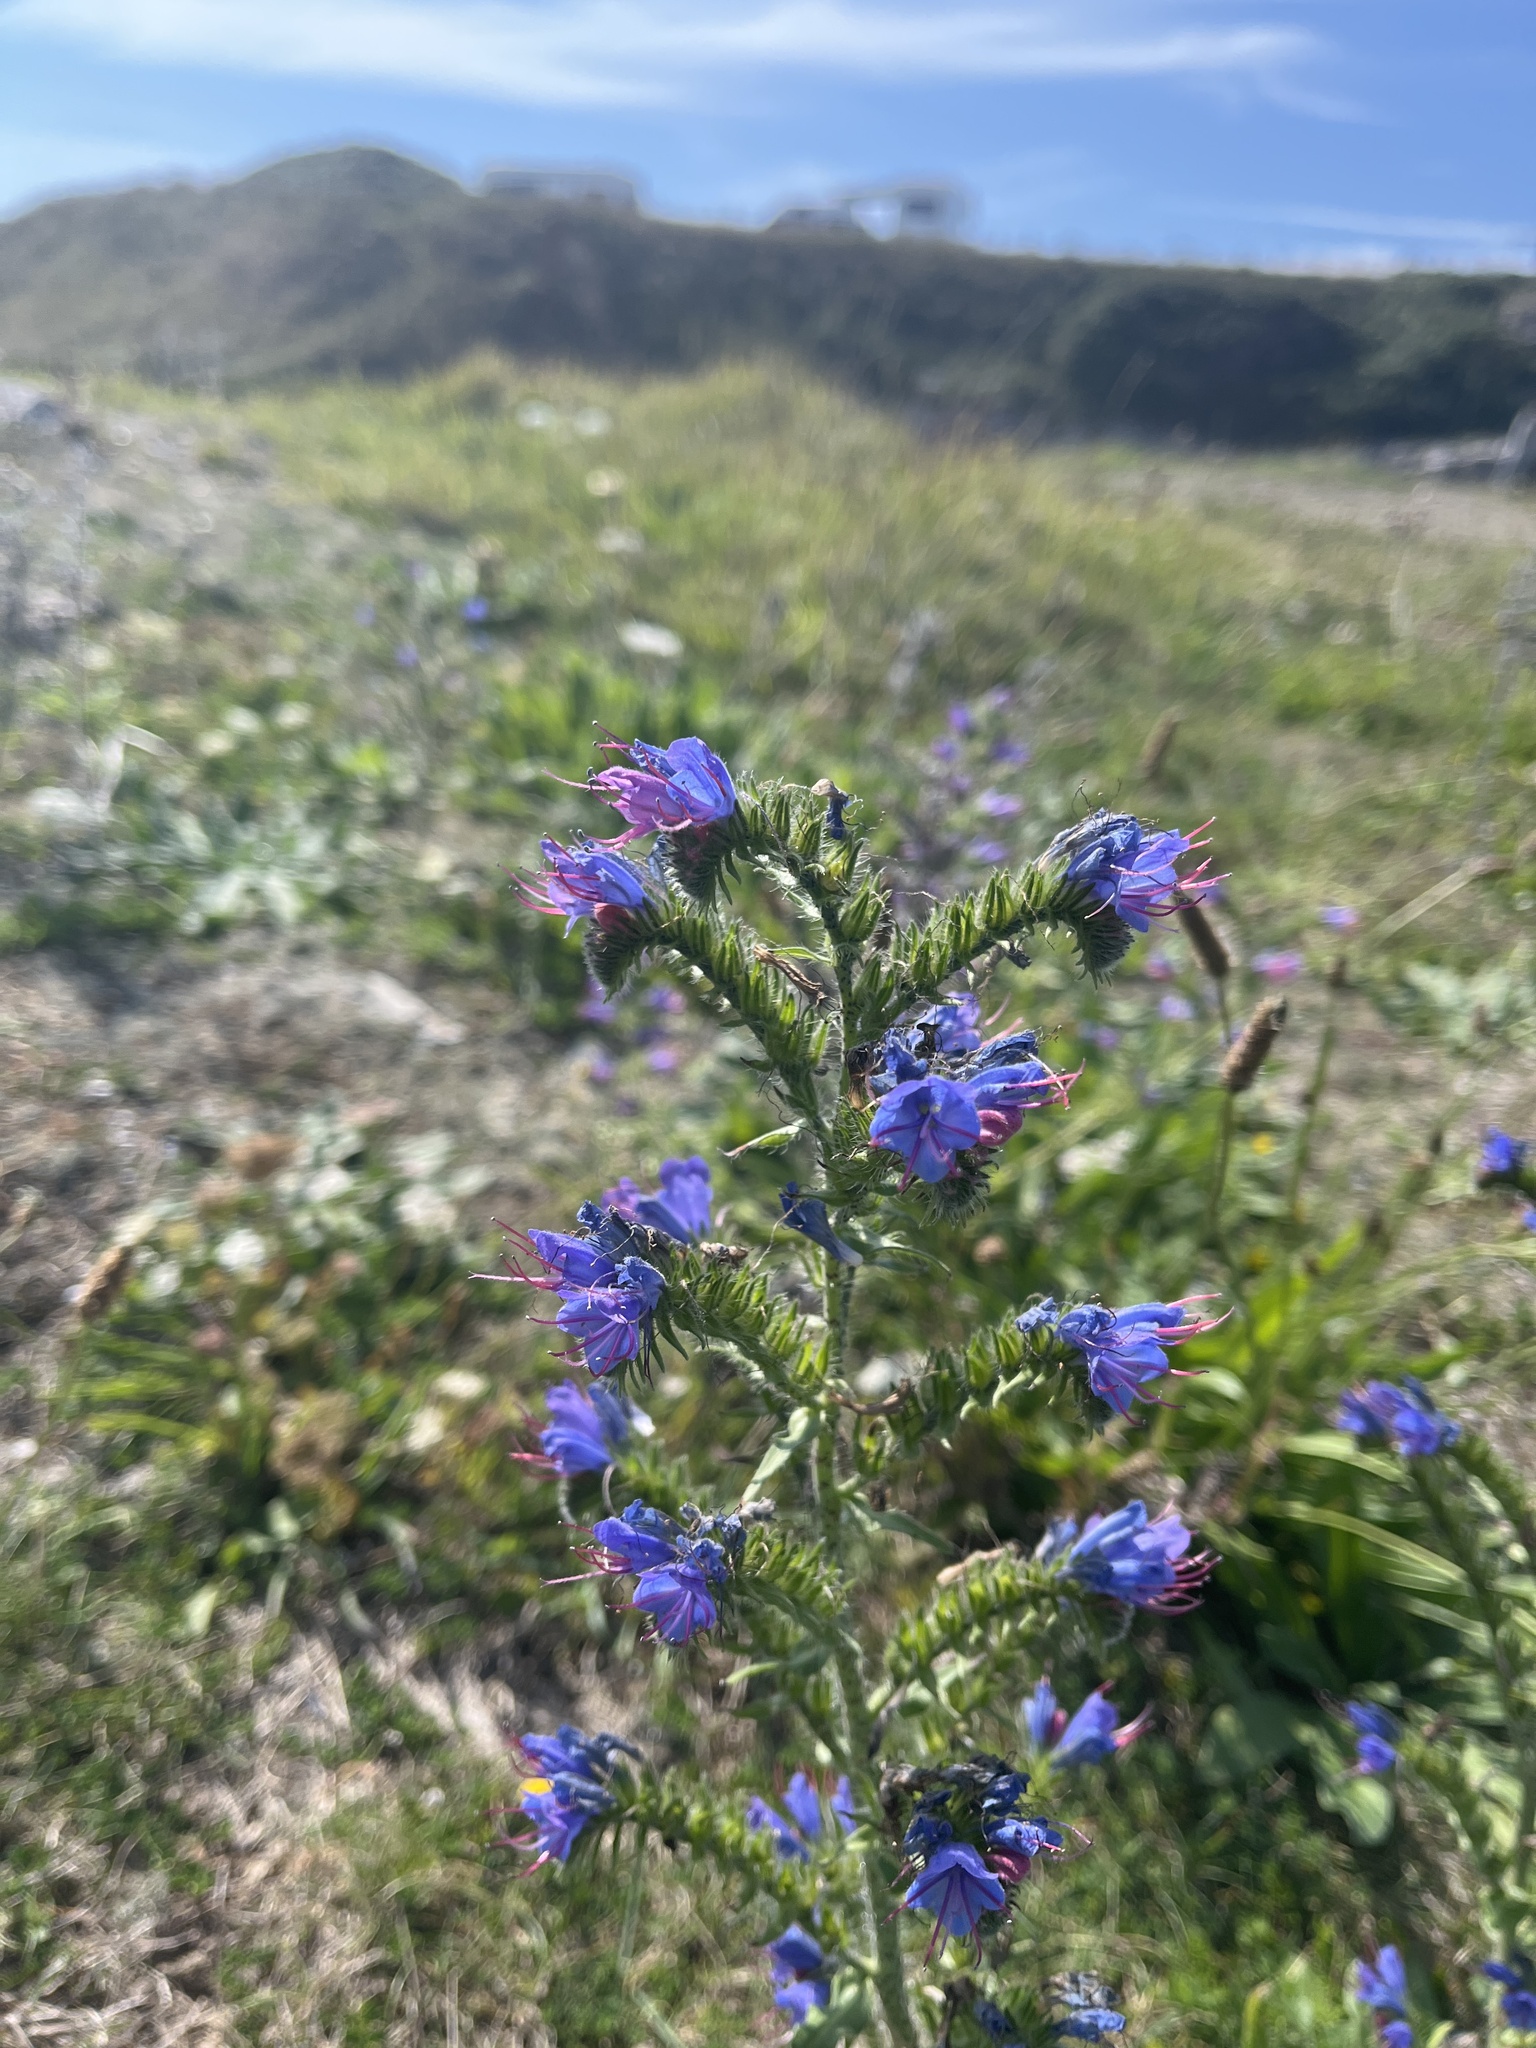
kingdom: Plantae
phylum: Tracheophyta
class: Magnoliopsida
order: Boraginales
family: Boraginaceae
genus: Echium
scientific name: Echium vulgare
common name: Common viper's bugloss
